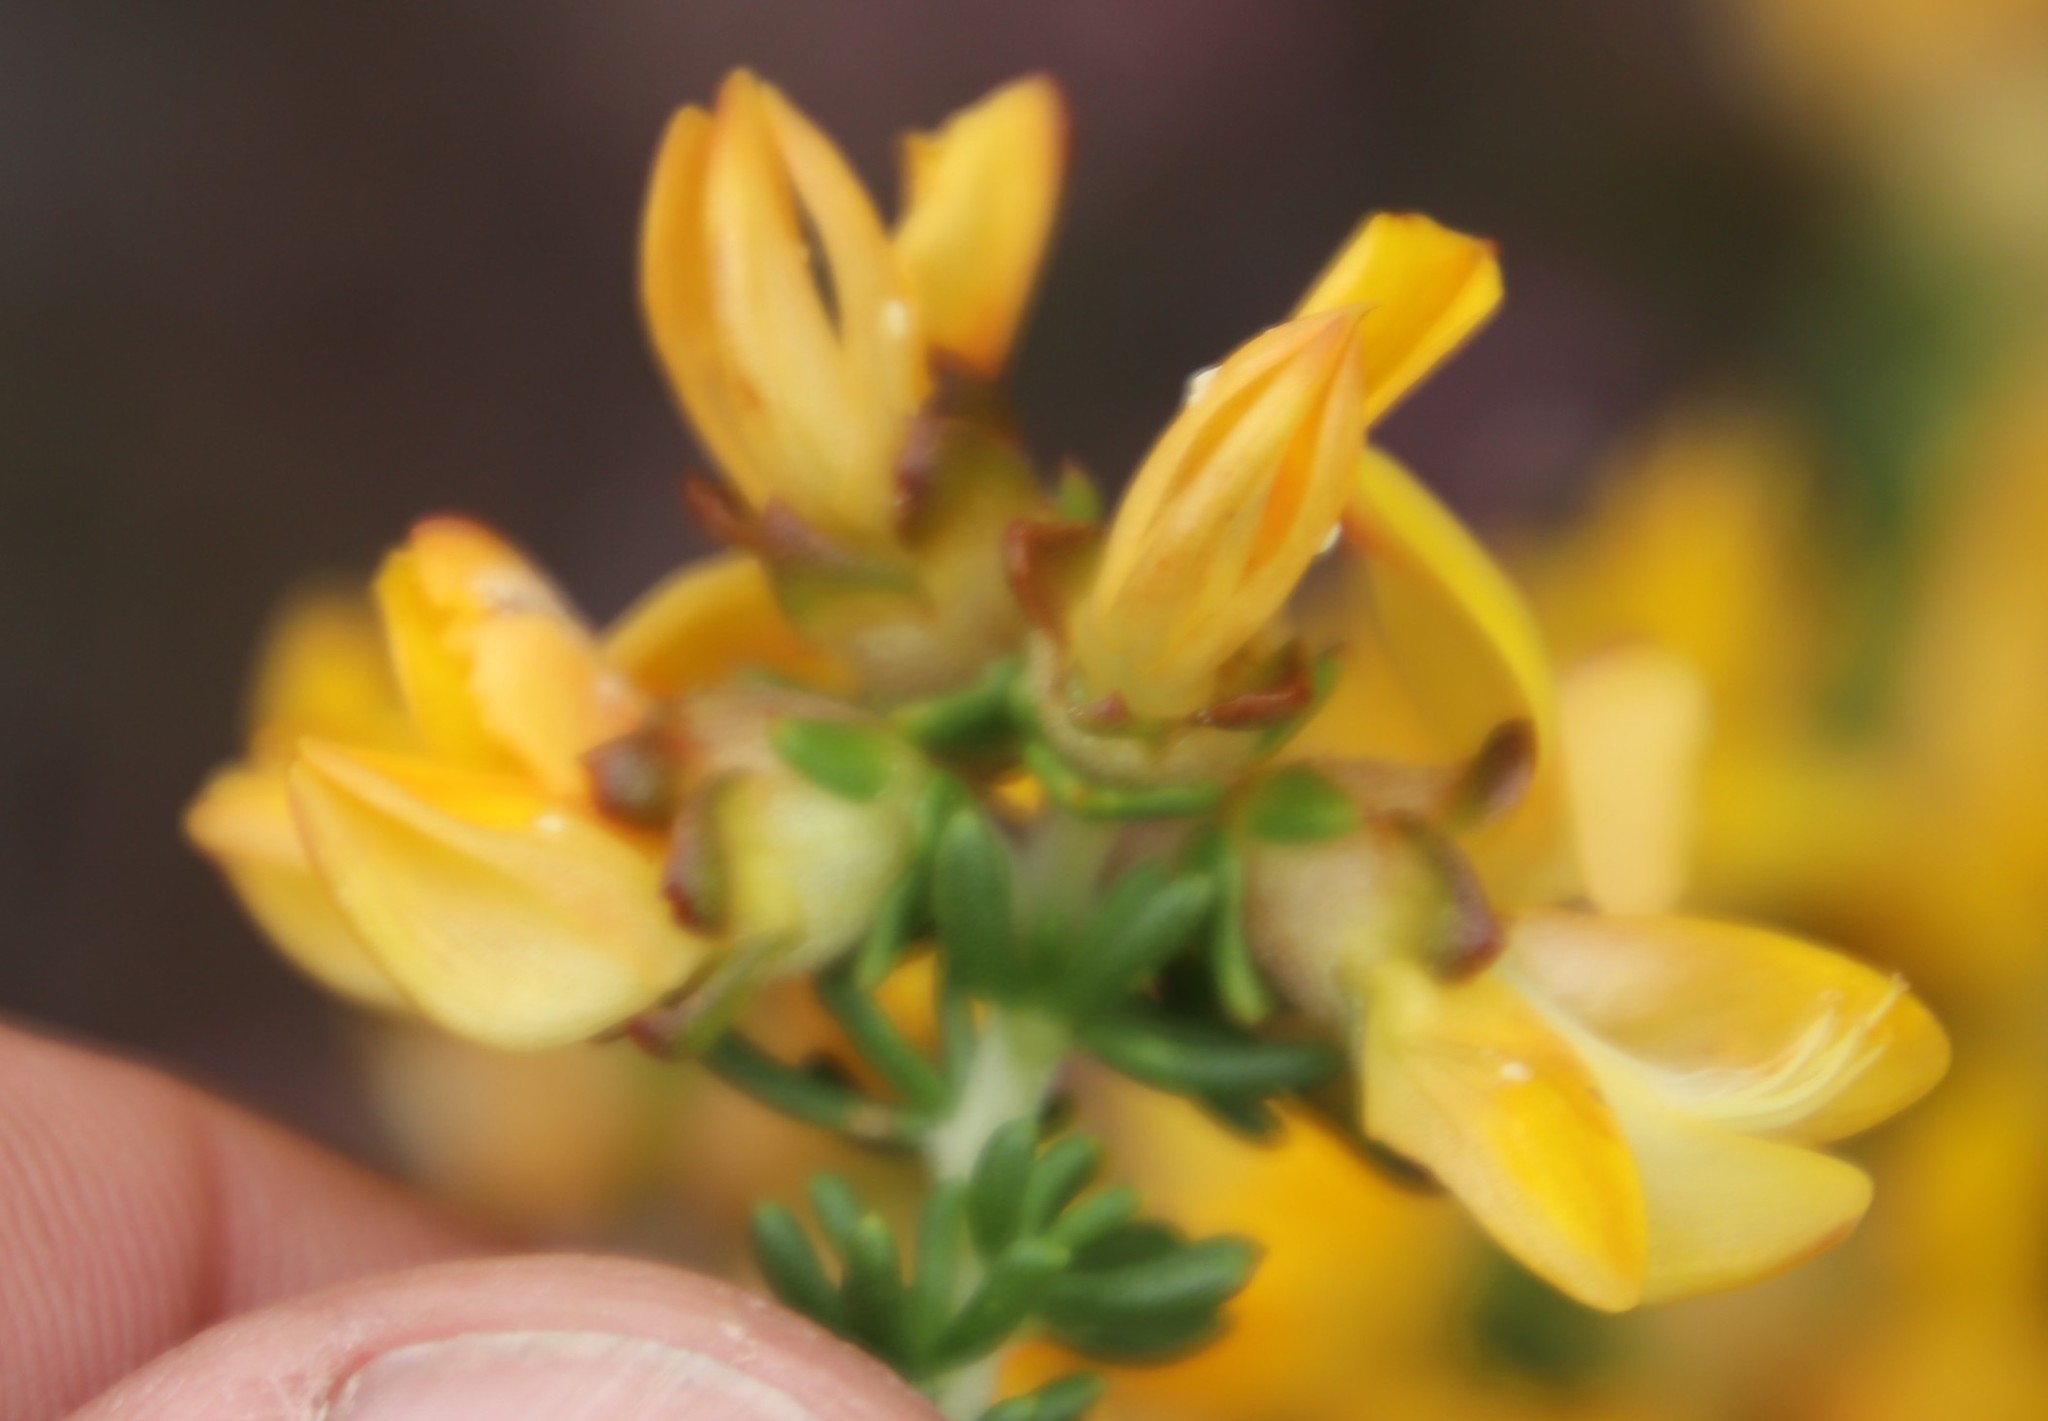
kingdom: Plantae
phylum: Tracheophyta
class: Magnoliopsida
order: Fabales
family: Fabaceae
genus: Aspalathus
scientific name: Aspalathus carnosa
